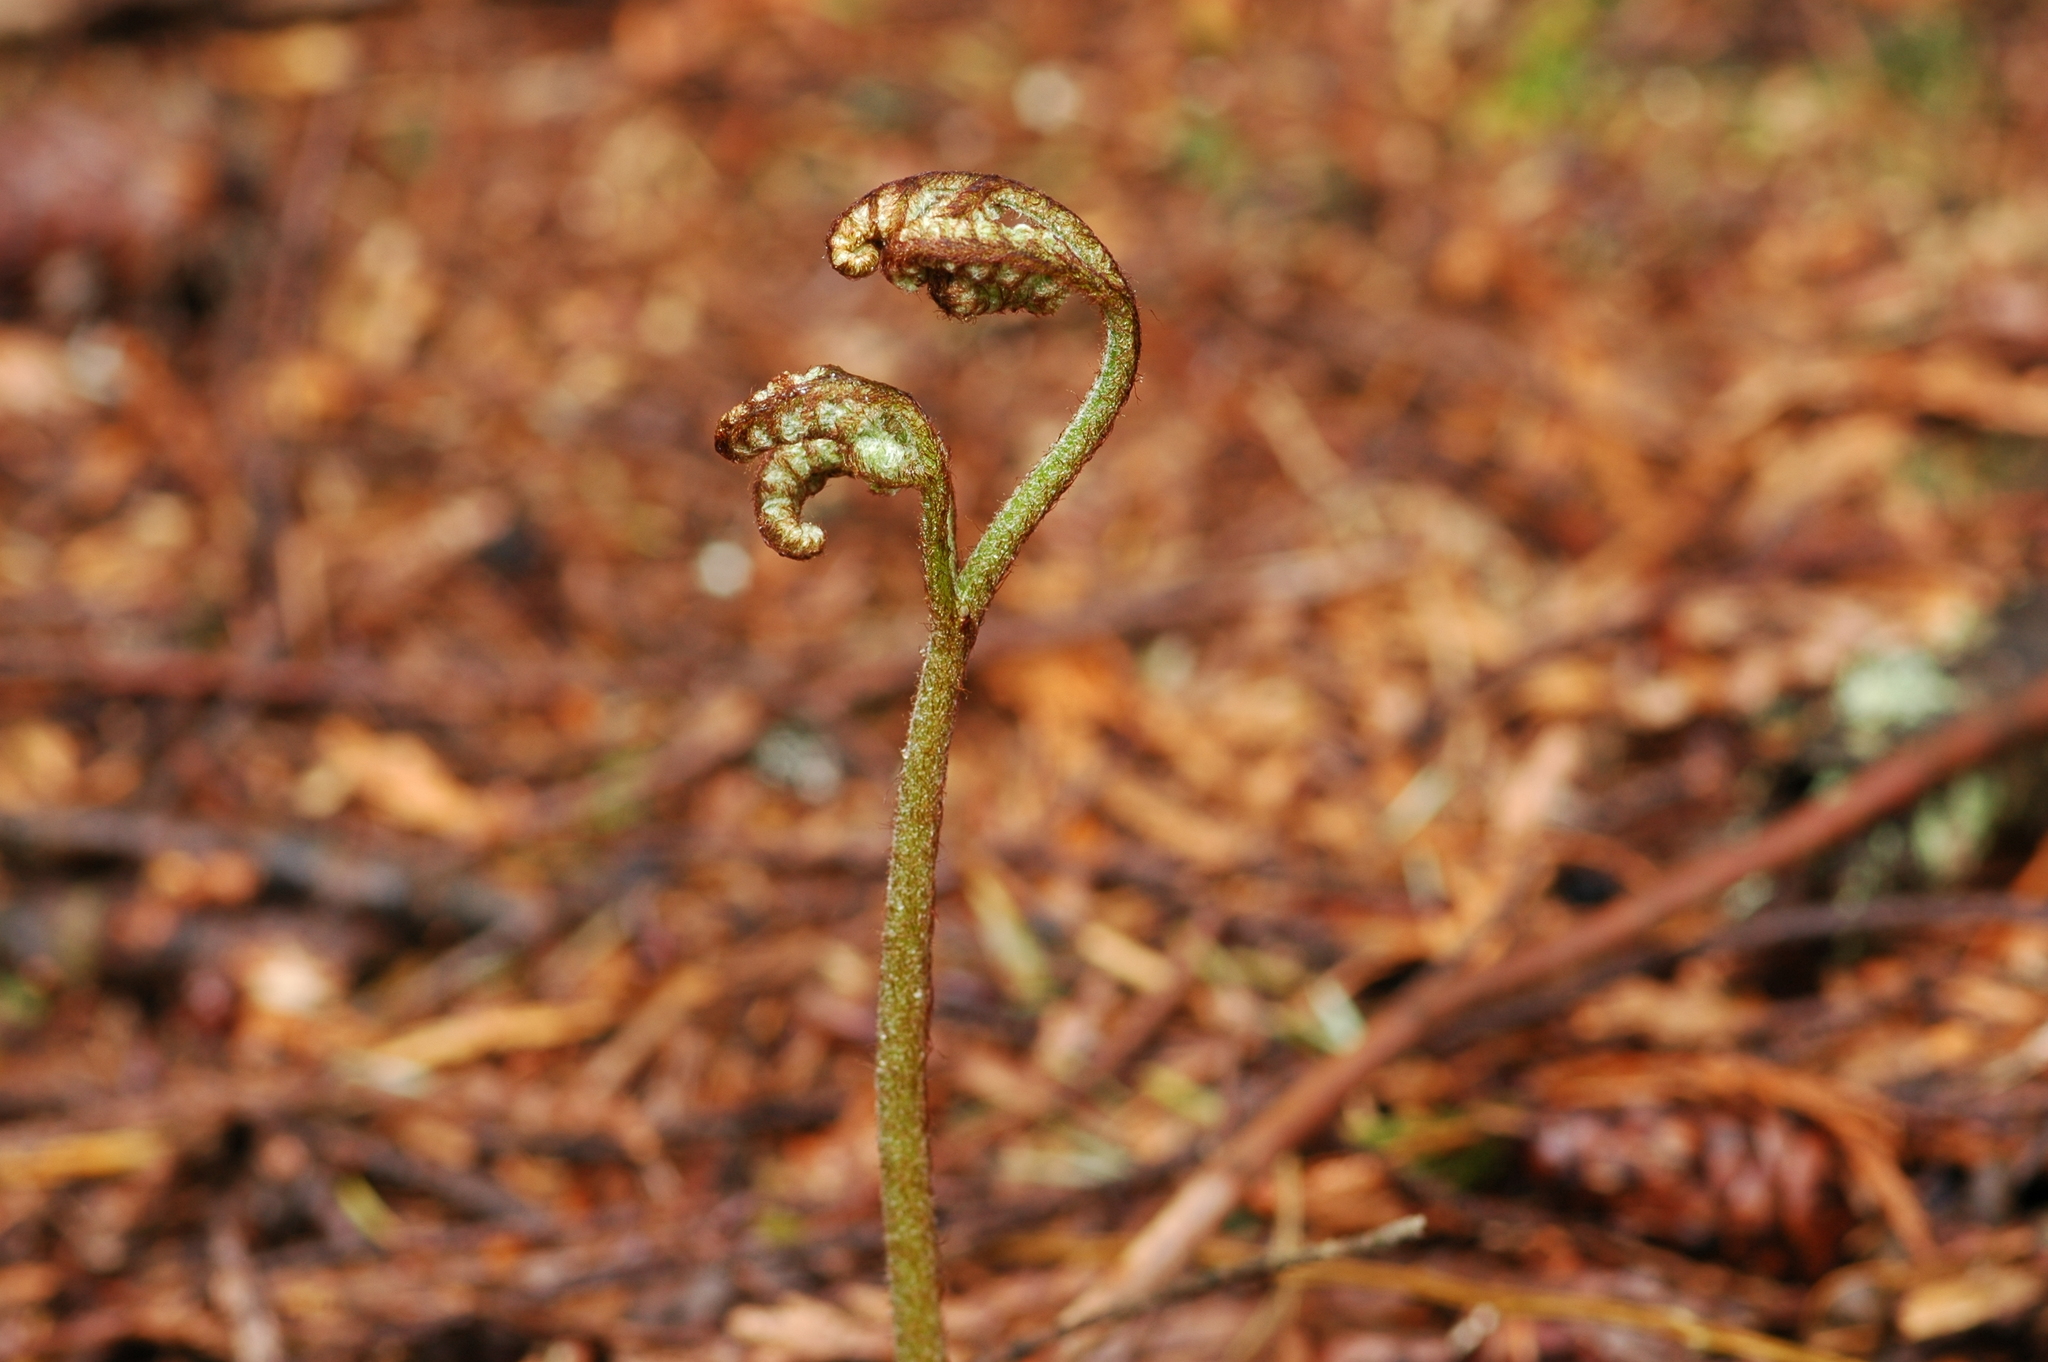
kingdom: Plantae
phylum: Tracheophyta
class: Polypodiopsida
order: Polypodiales
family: Dennstaedtiaceae
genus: Pteridium
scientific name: Pteridium aquilinum
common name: Bracken
